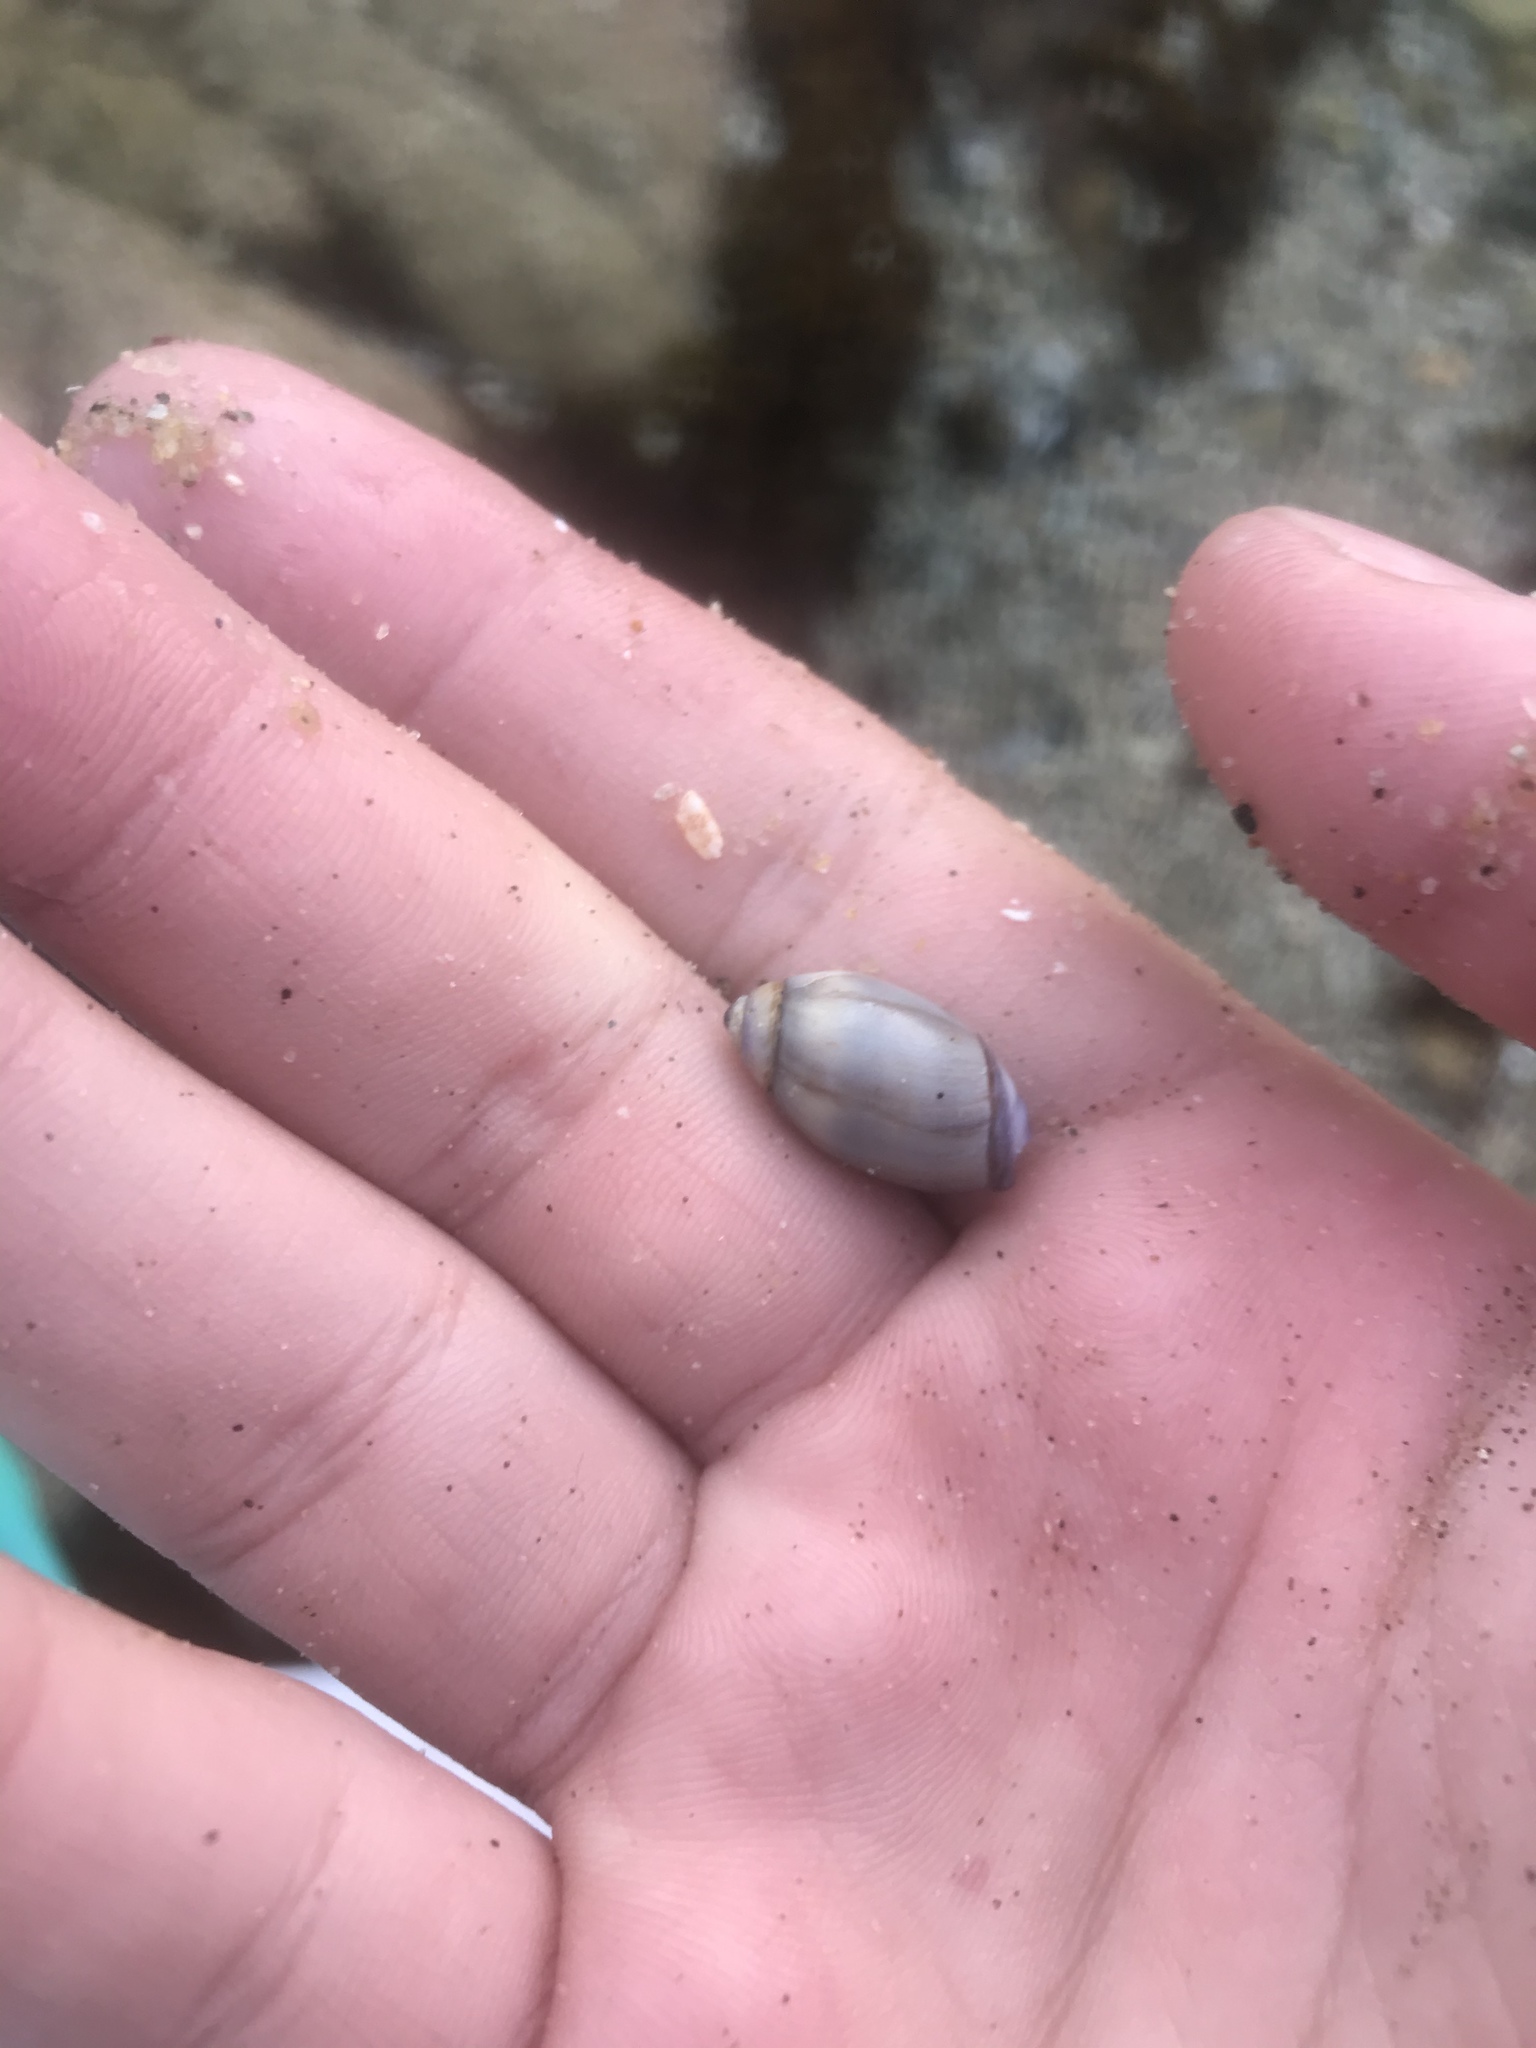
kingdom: Animalia
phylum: Mollusca
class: Gastropoda
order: Neogastropoda
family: Olividae
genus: Callianax
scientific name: Callianax biplicata
